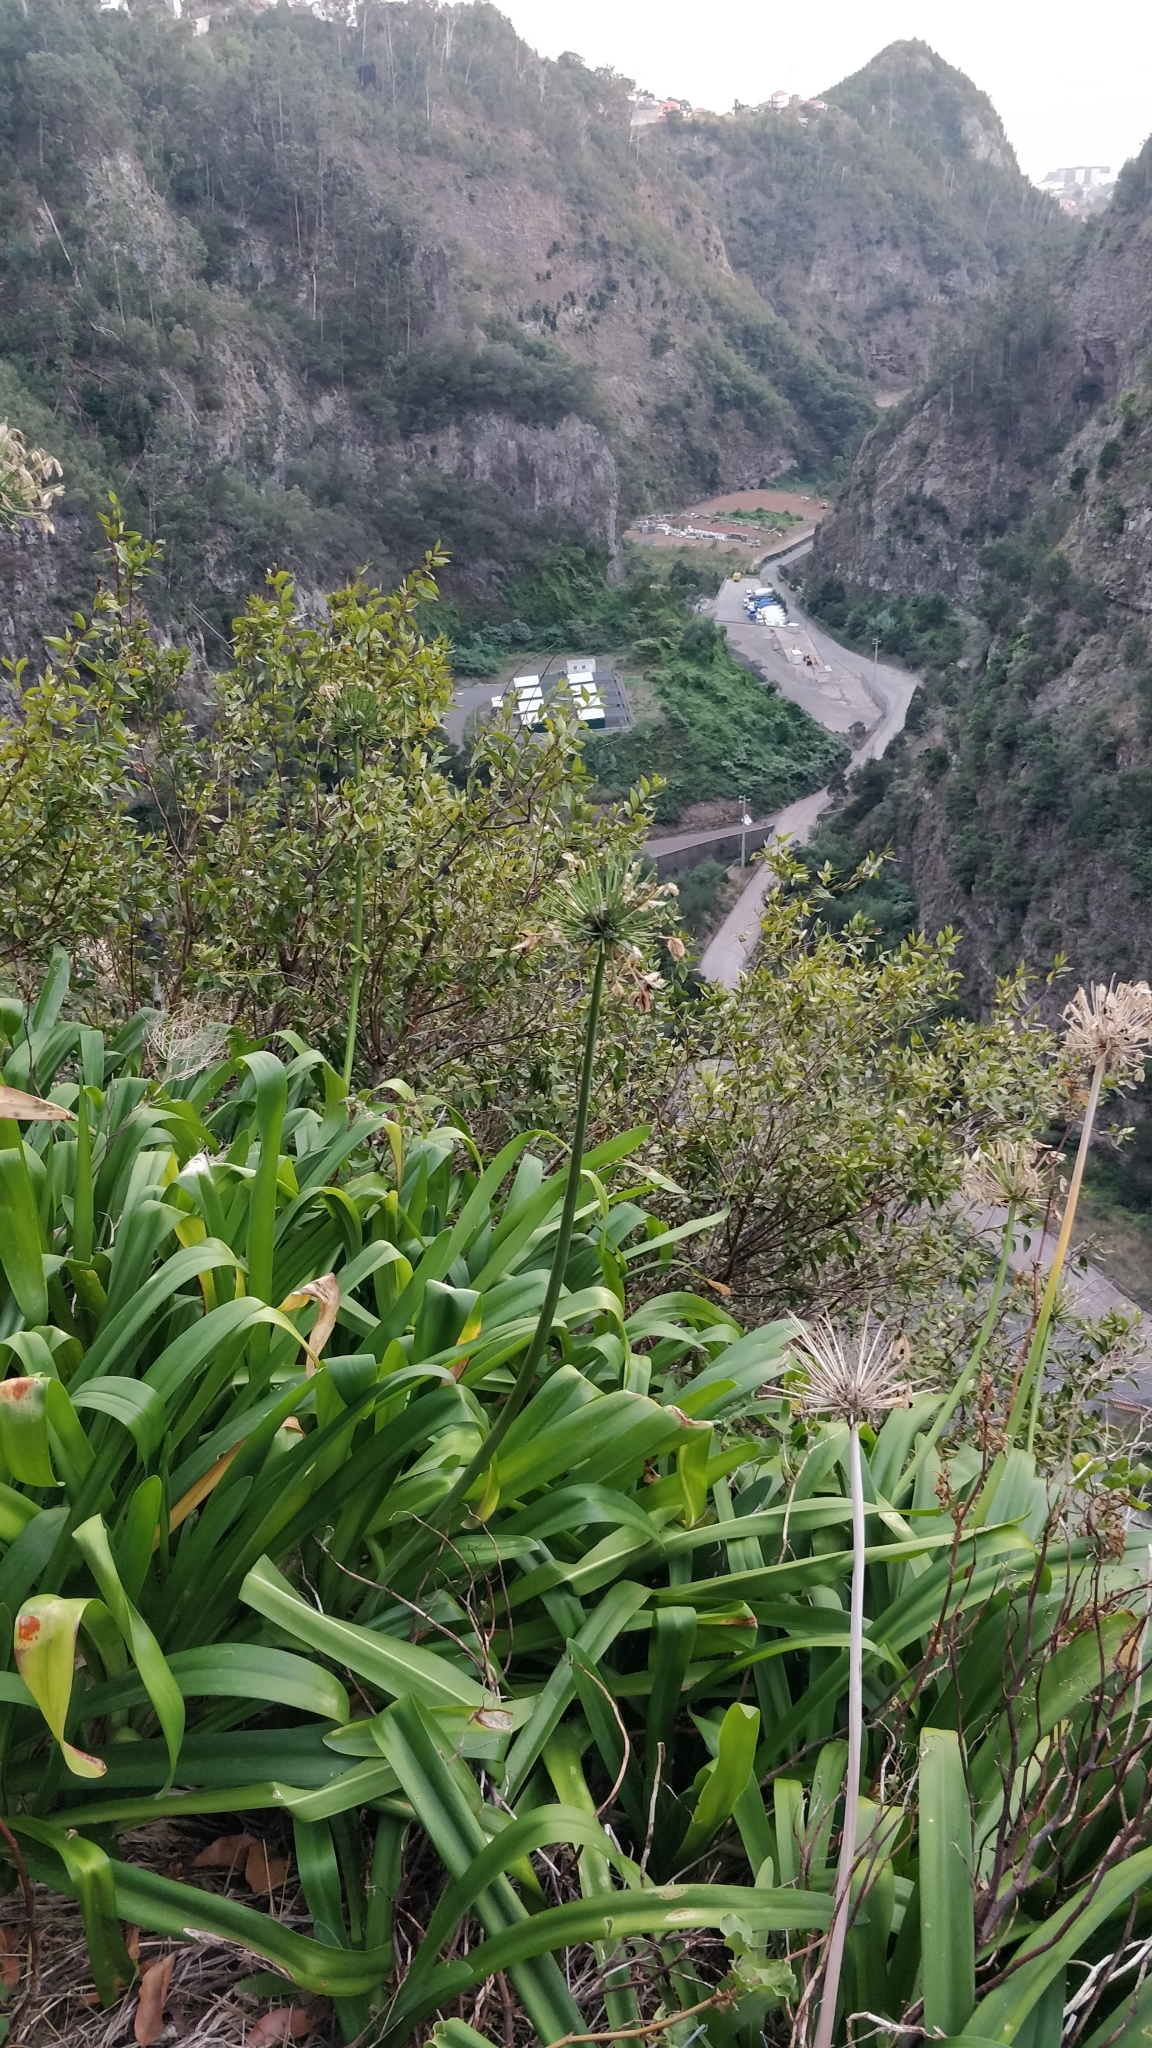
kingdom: Plantae
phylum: Tracheophyta
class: Magnoliopsida
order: Myrtales
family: Myrtaceae
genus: Myrtus
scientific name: Myrtus communis
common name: Myrtle
